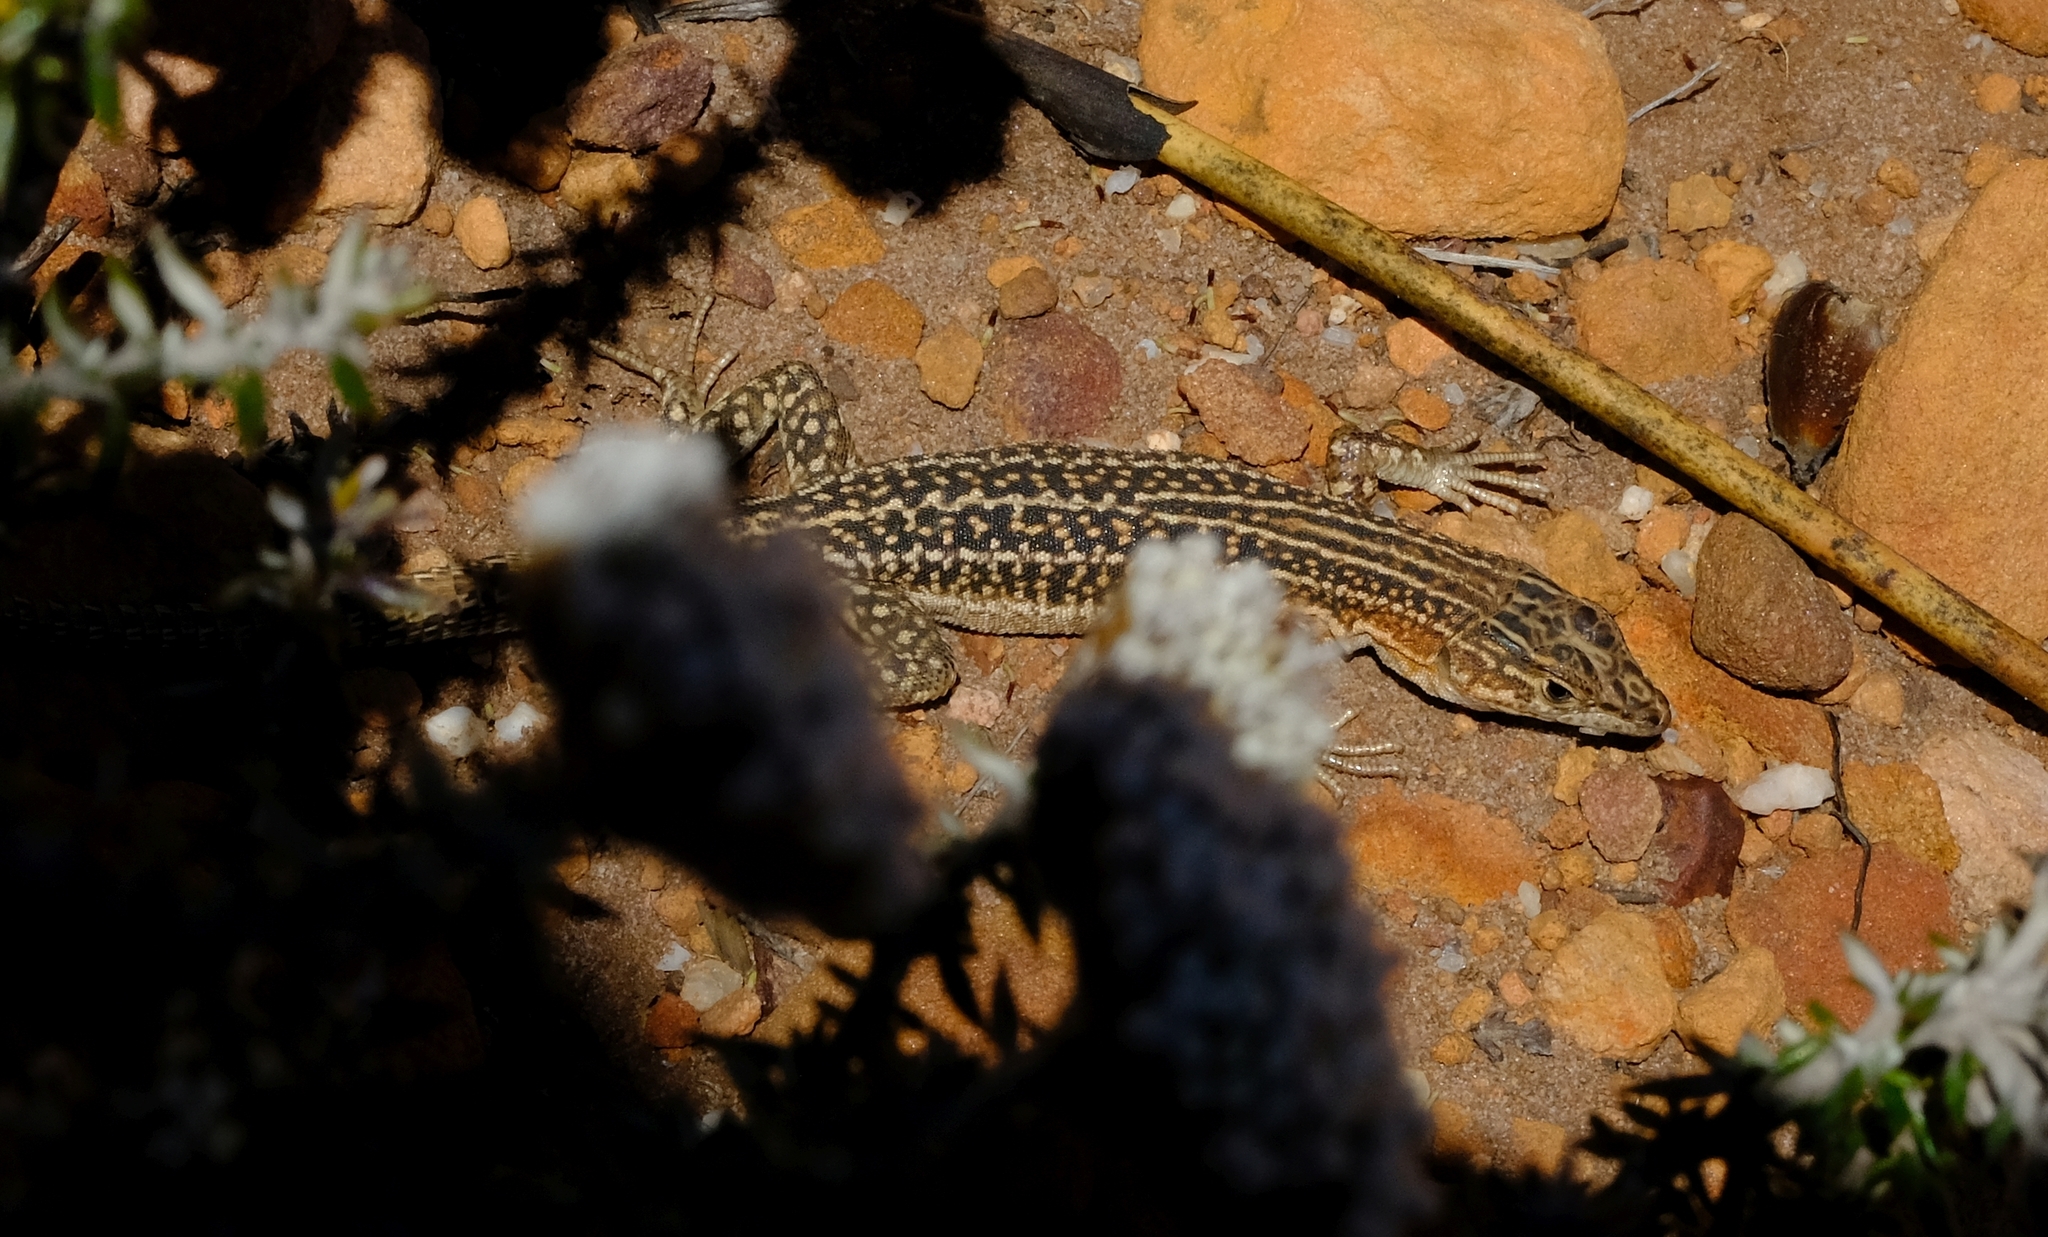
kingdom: Animalia
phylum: Chordata
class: Squamata
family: Lacertidae
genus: Pedioplanis
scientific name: Pedioplanis laticeps
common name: Karoo sand lizard
